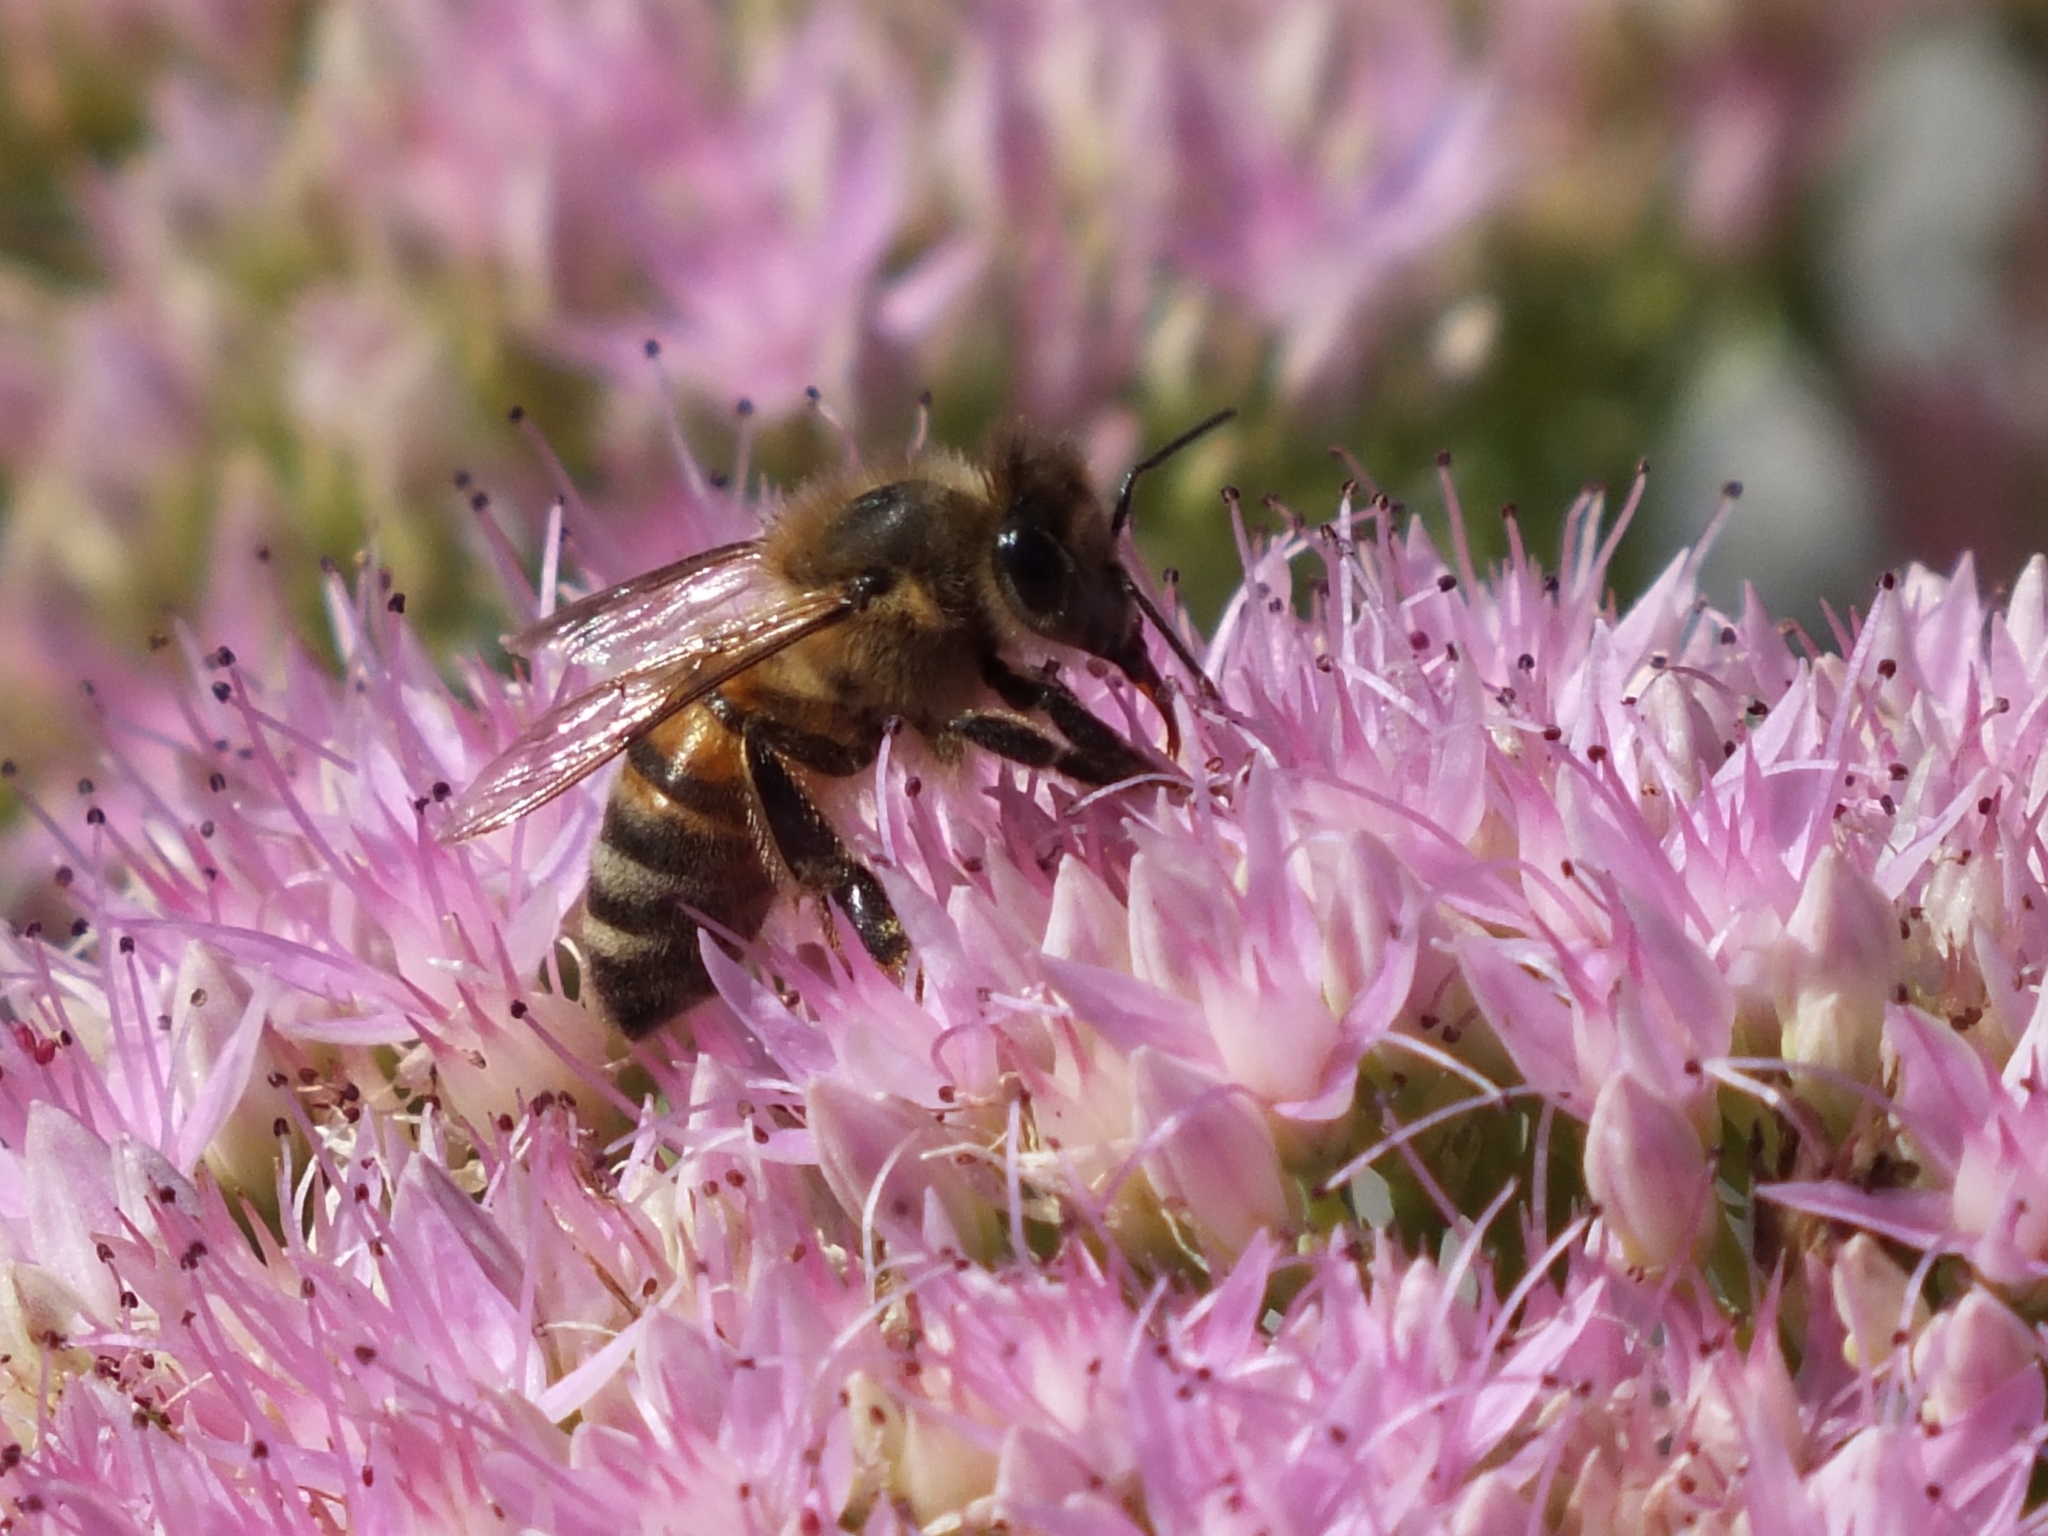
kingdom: Animalia
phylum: Arthropoda
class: Insecta
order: Hymenoptera
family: Apidae
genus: Apis
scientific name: Apis mellifera
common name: Honey bee
